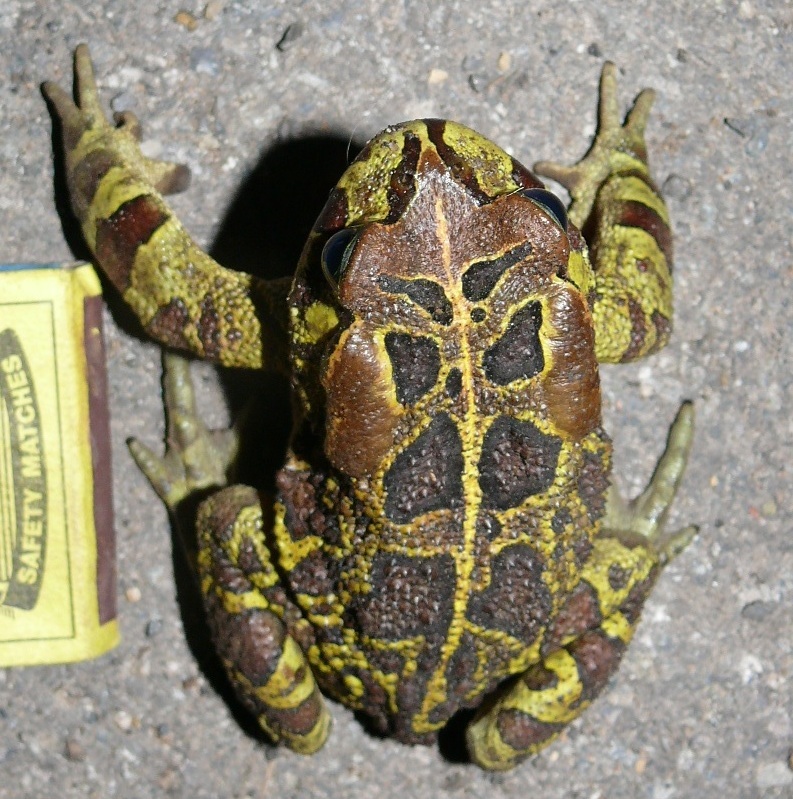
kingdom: Animalia
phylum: Chordata
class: Amphibia
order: Anura
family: Bufonidae
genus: Sclerophrys
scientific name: Sclerophrys pantherina
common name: Panther toad
